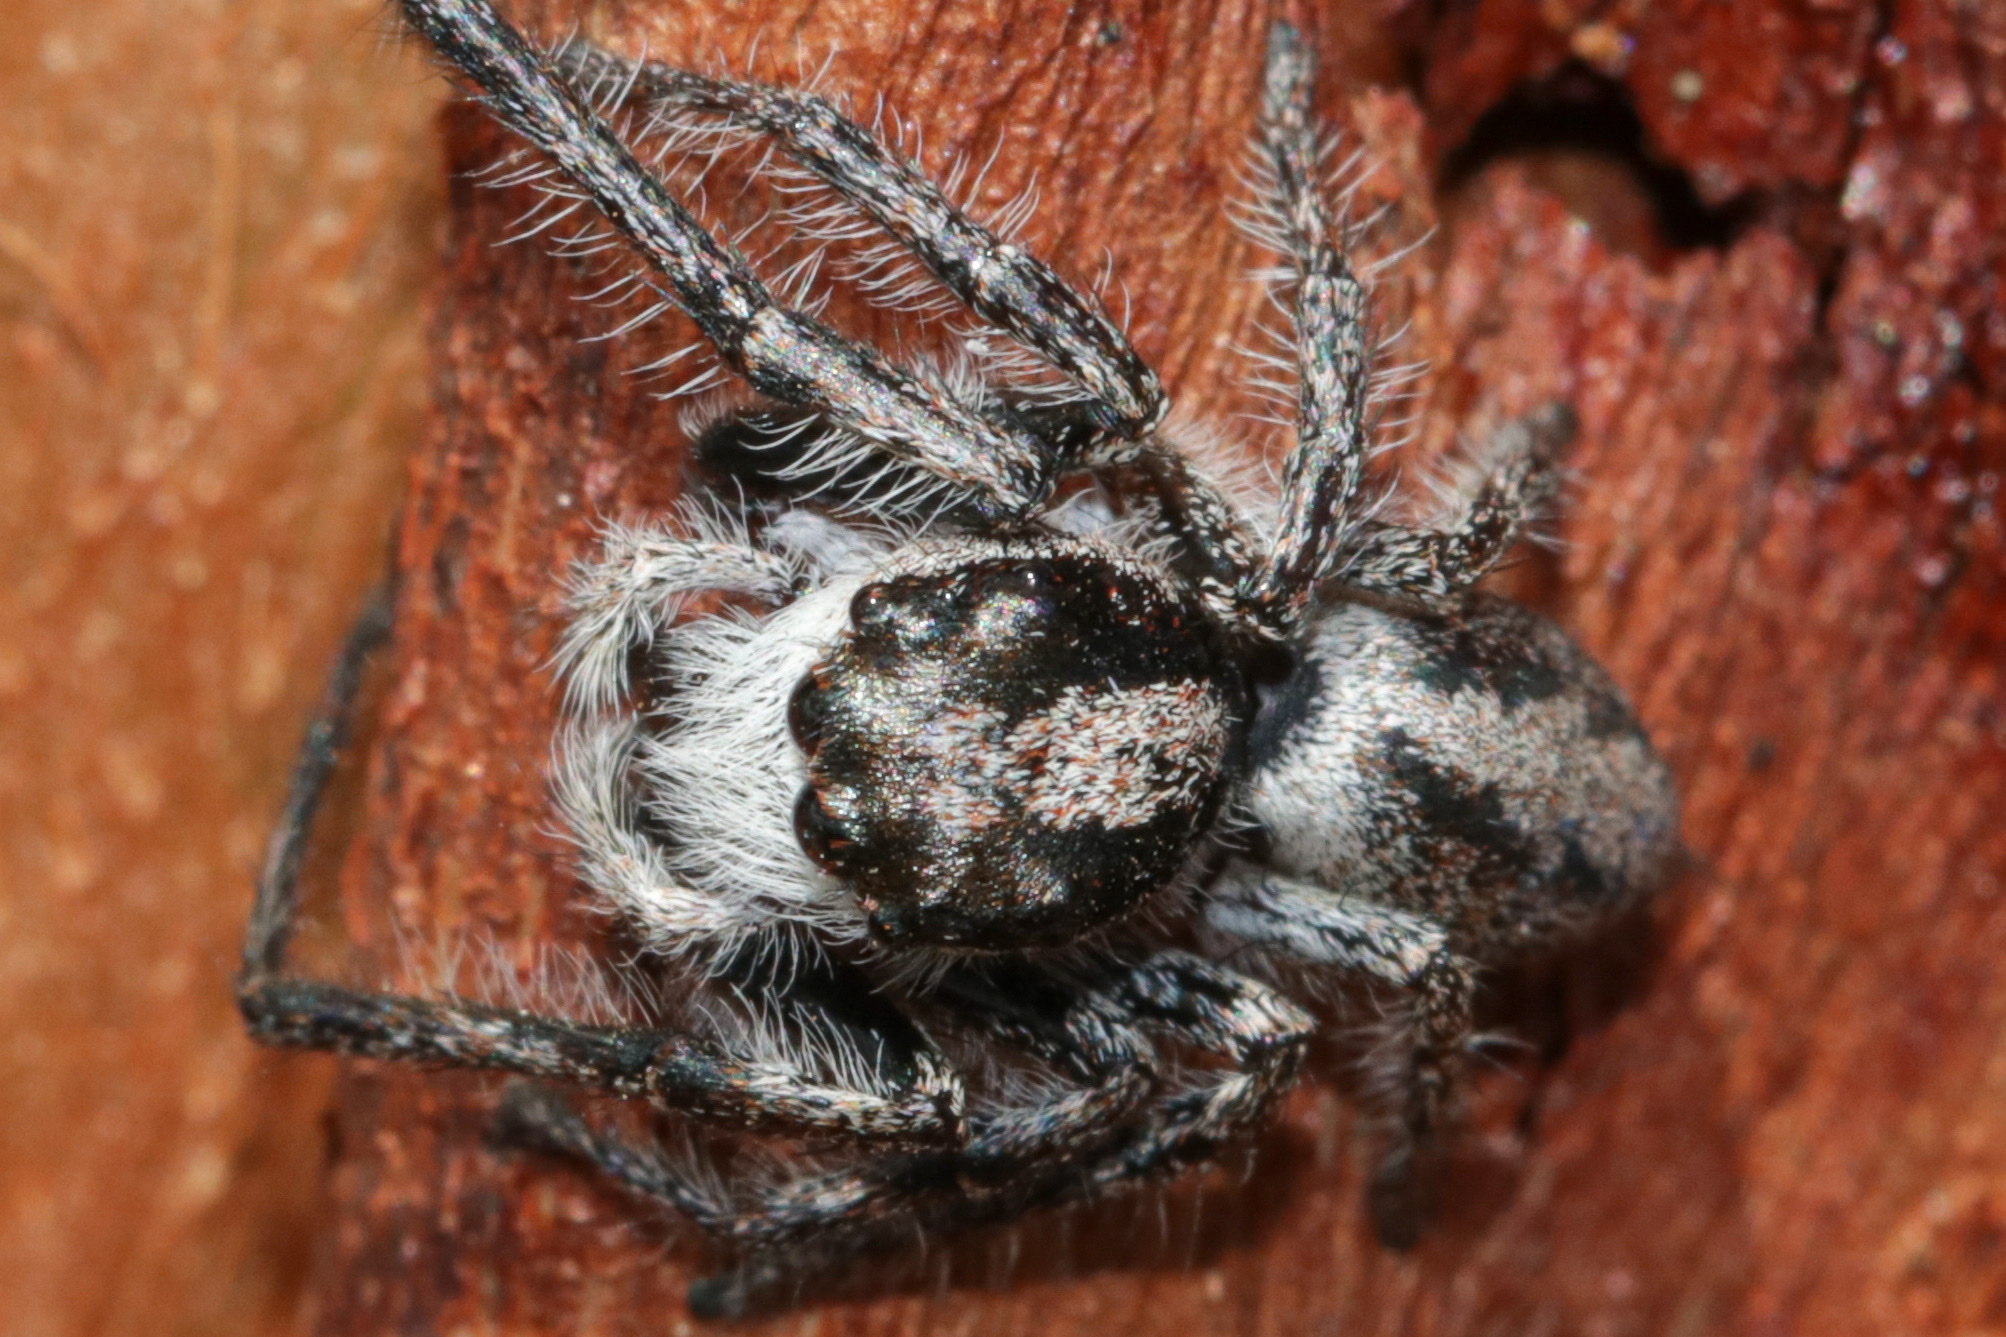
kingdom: Animalia
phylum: Arthropoda
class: Arachnida
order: Araneae
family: Salticidae
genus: Cytaea
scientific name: Cytaea aspera
